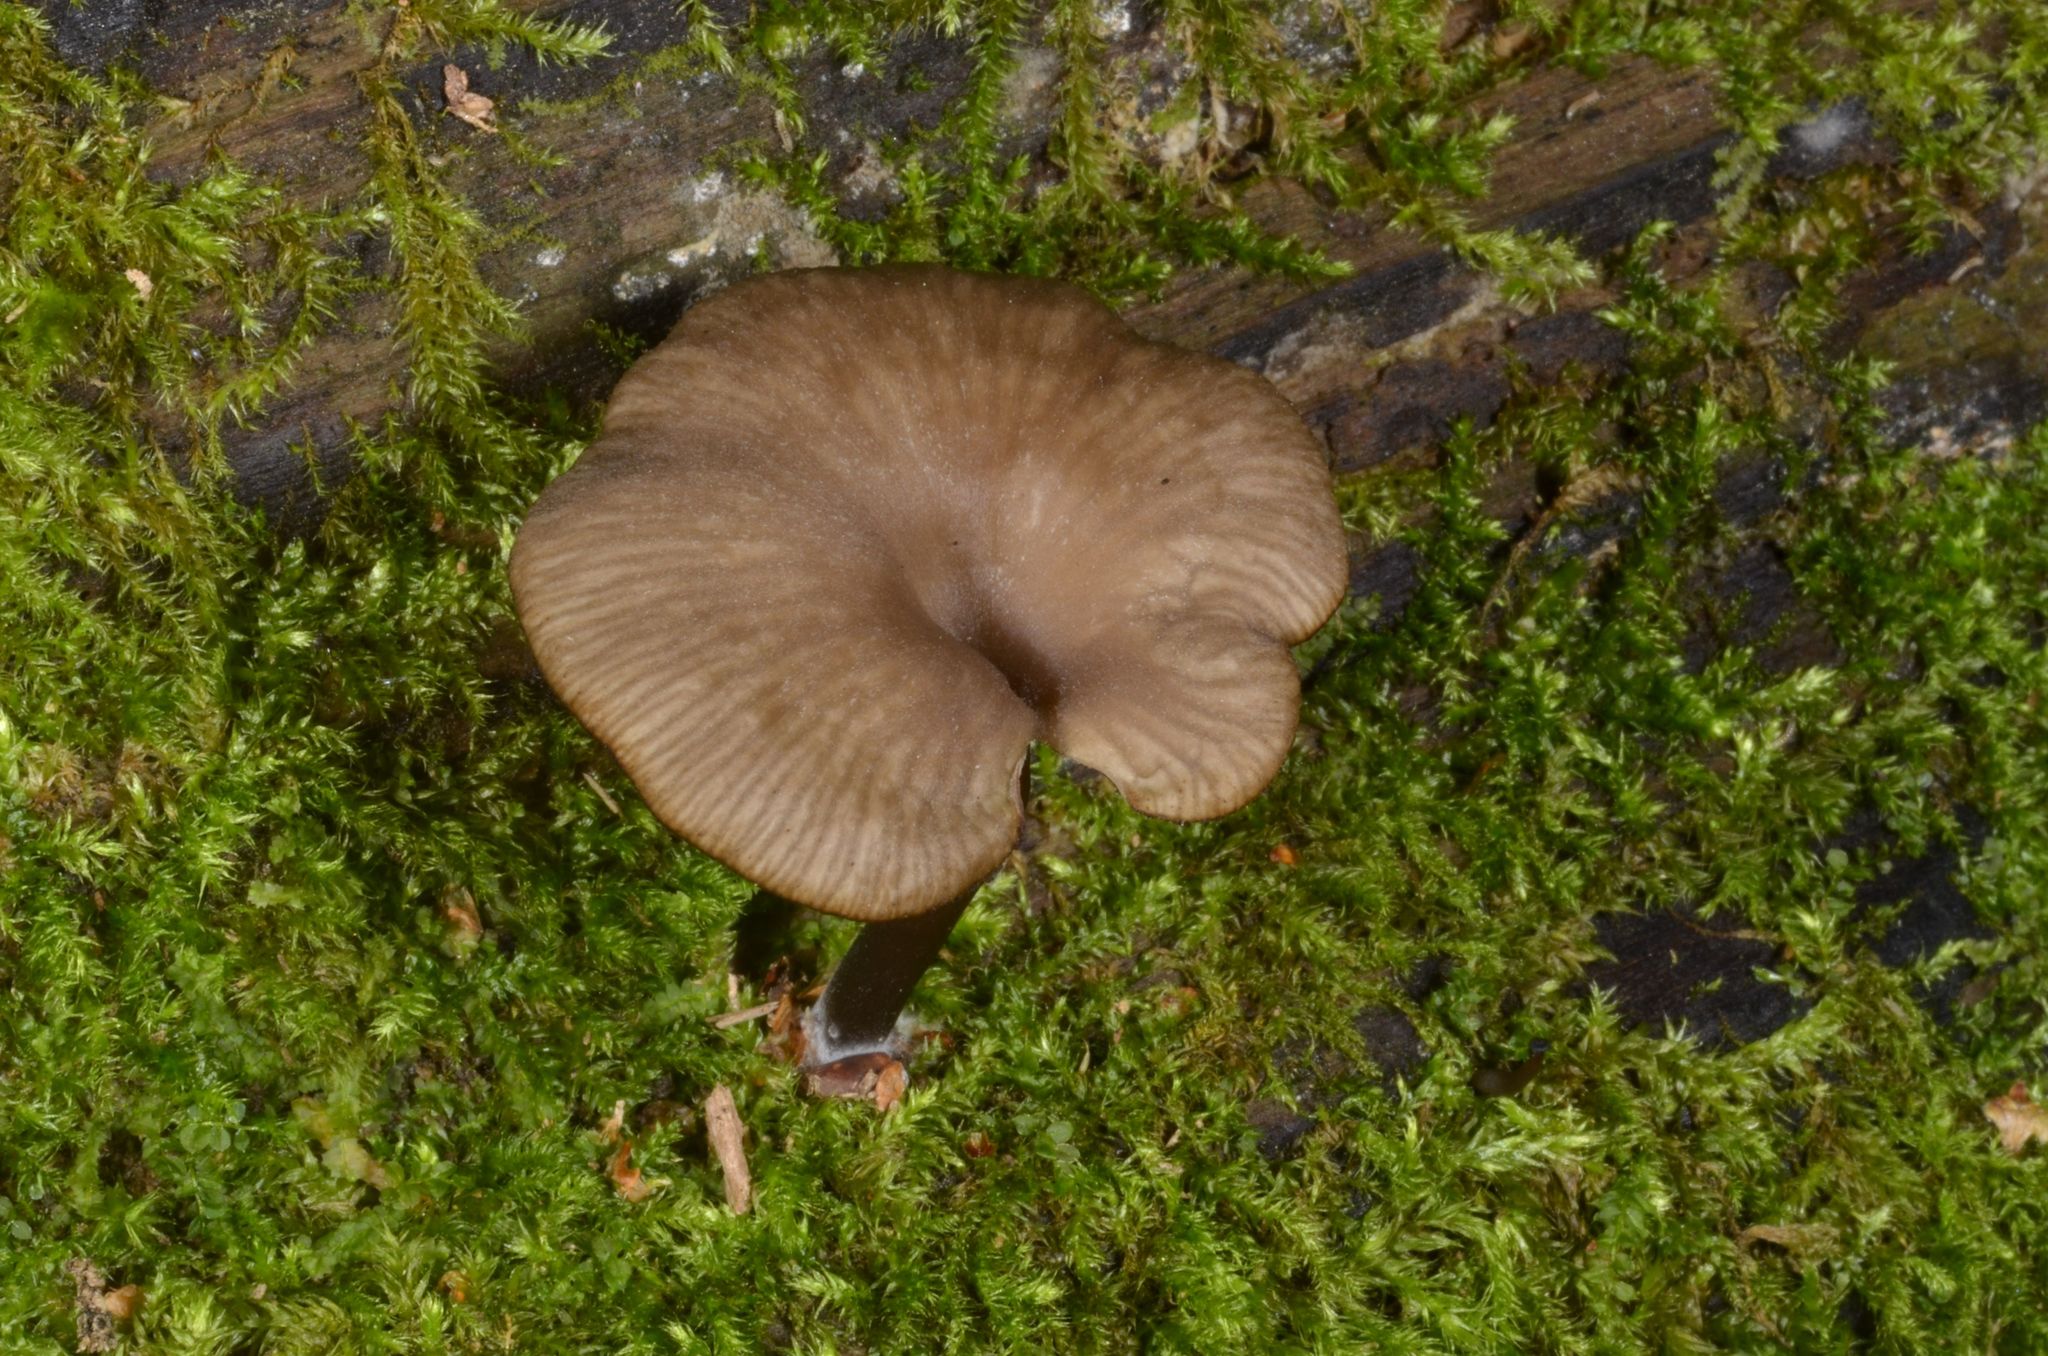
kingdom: Fungi
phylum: Basidiomycota
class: Agaricomycetes
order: Agaricales
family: Hygrophoraceae
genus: Arrhenia
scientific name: Arrhenia epichysium
